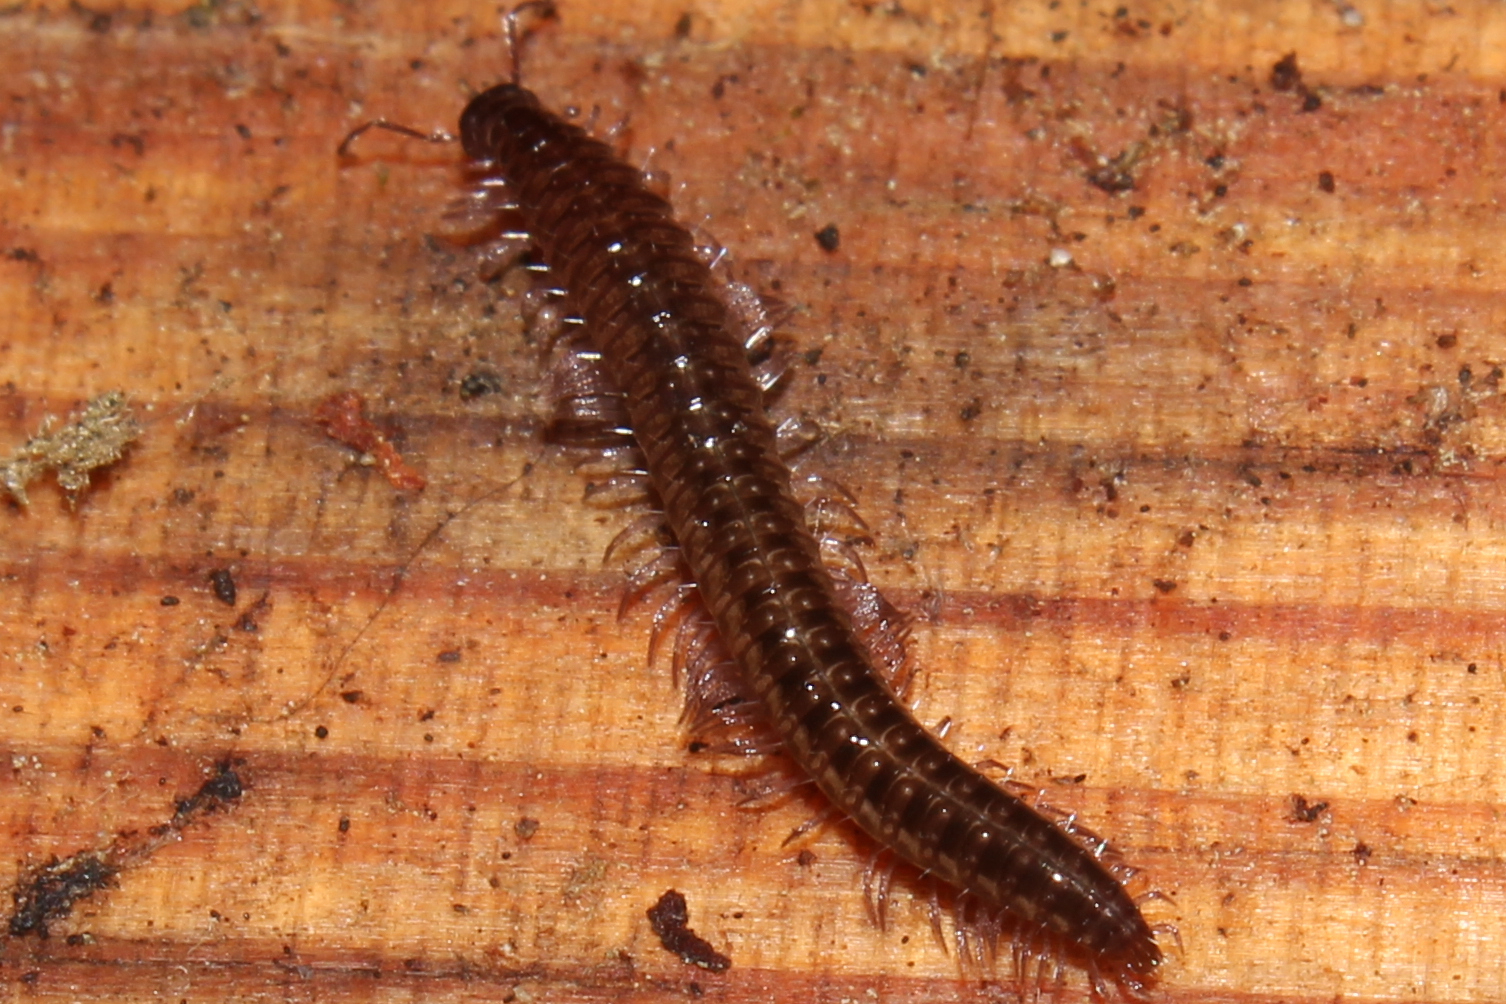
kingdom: Animalia
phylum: Arthropoda
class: Diplopoda
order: Chordeumatida
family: Cleidogonidae
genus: Cleidogona
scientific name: Cleidogona
